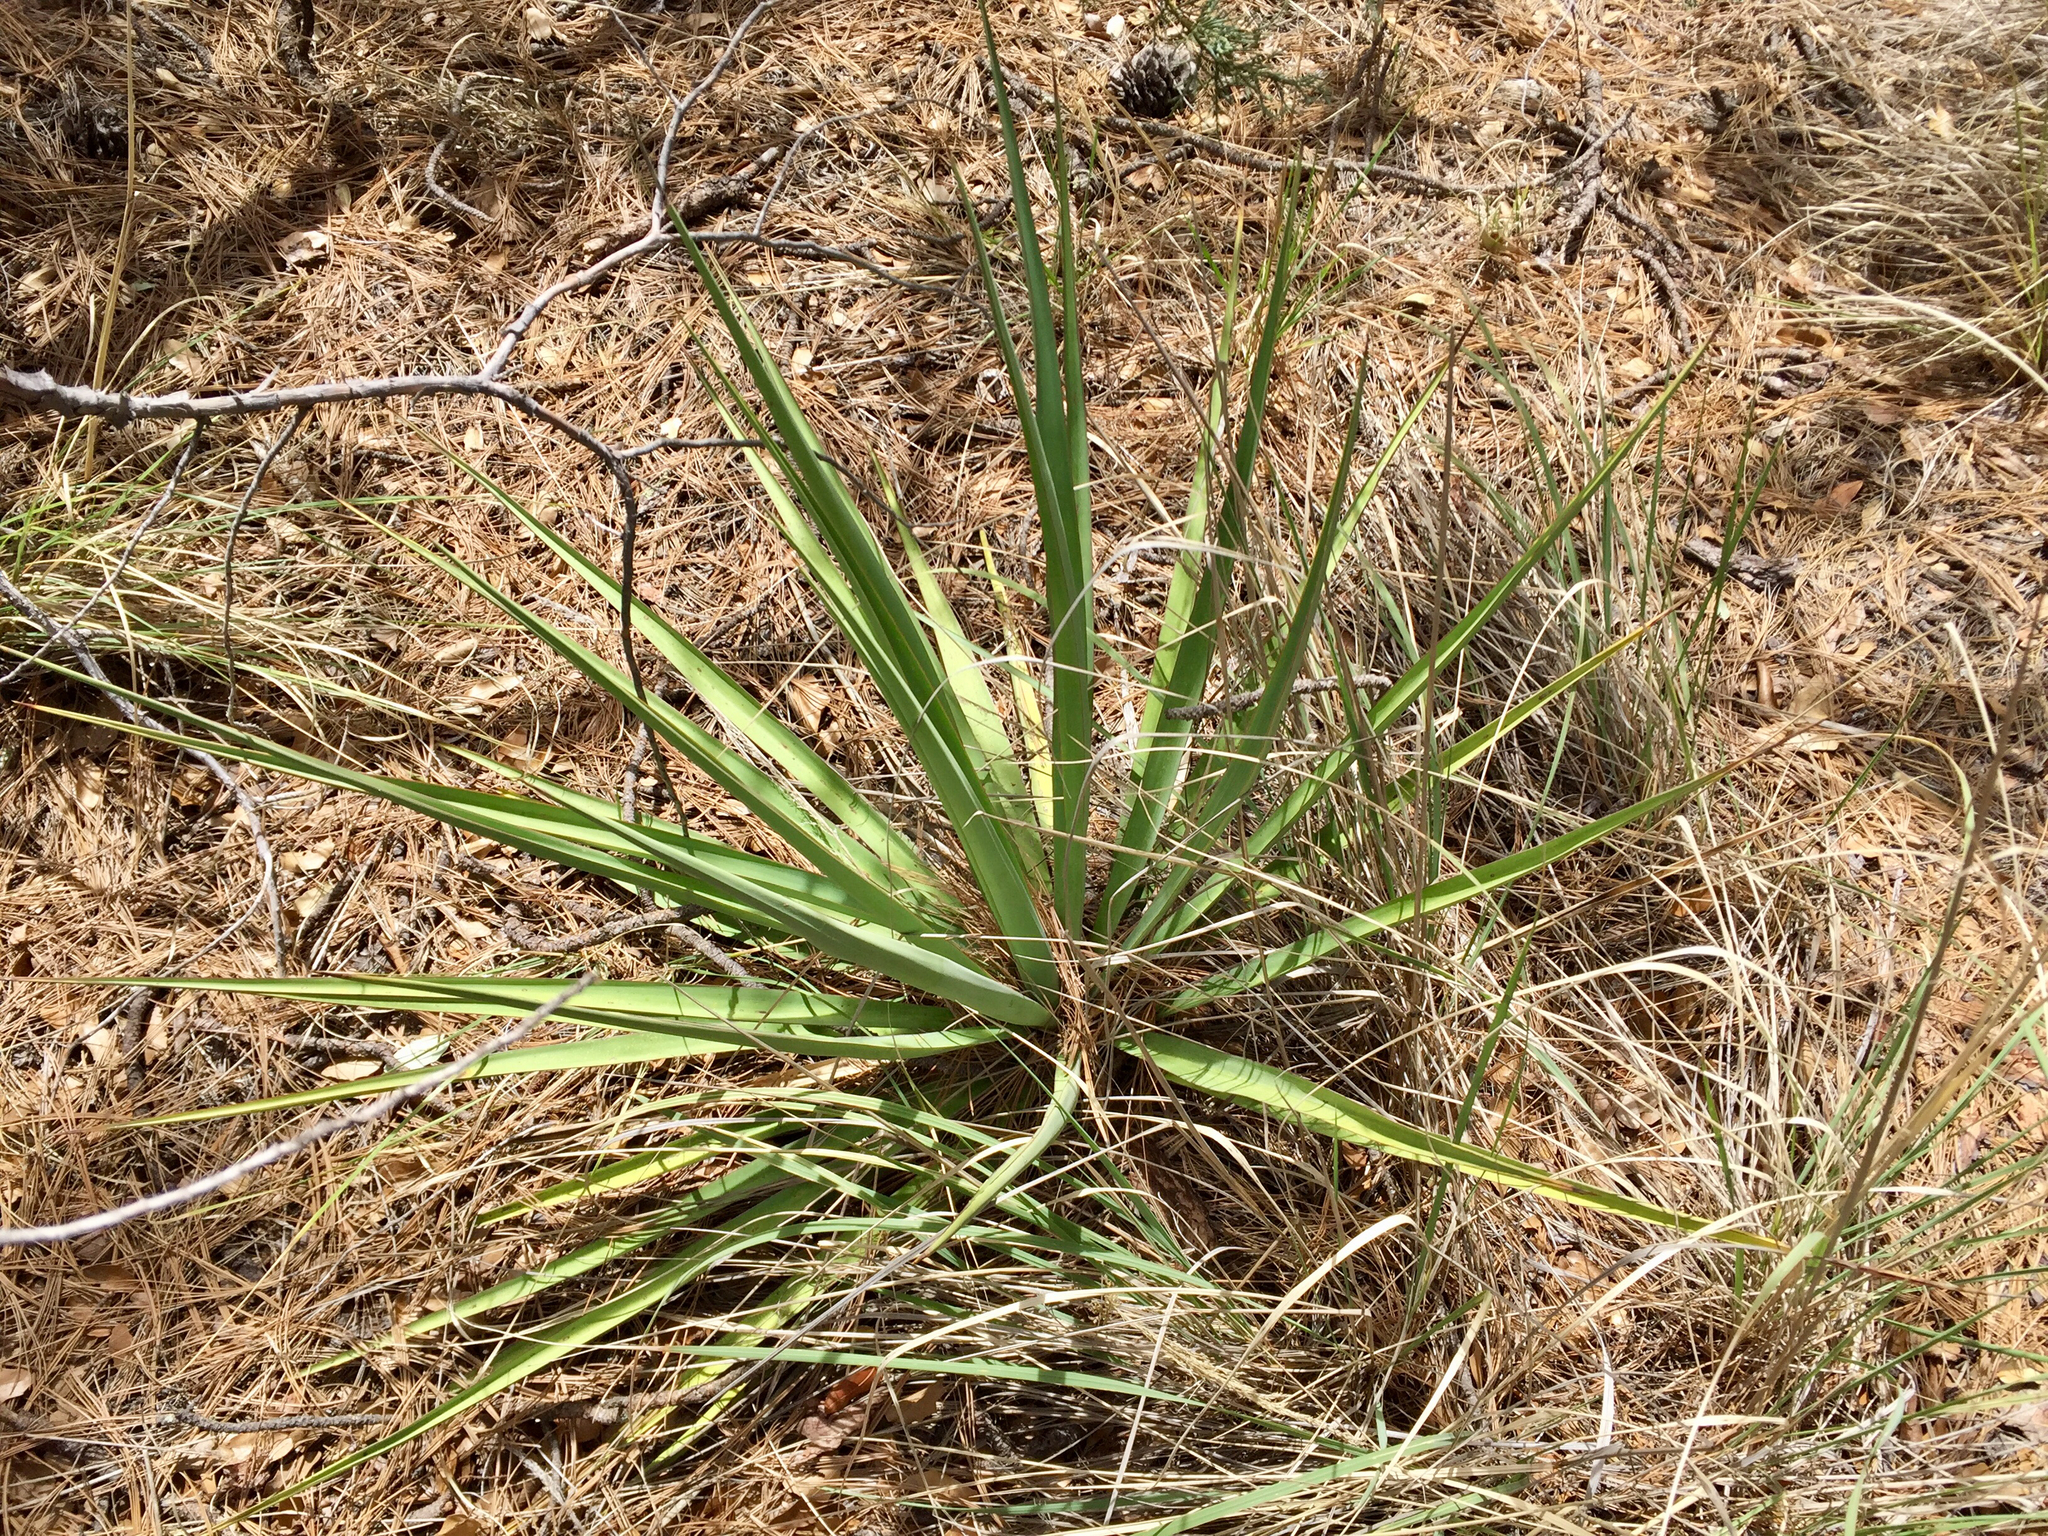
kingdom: Plantae
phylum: Tracheophyta
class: Liliopsida
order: Asparagales
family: Asparagaceae
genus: Yucca
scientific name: Yucca schottii
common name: Hoary yucca
